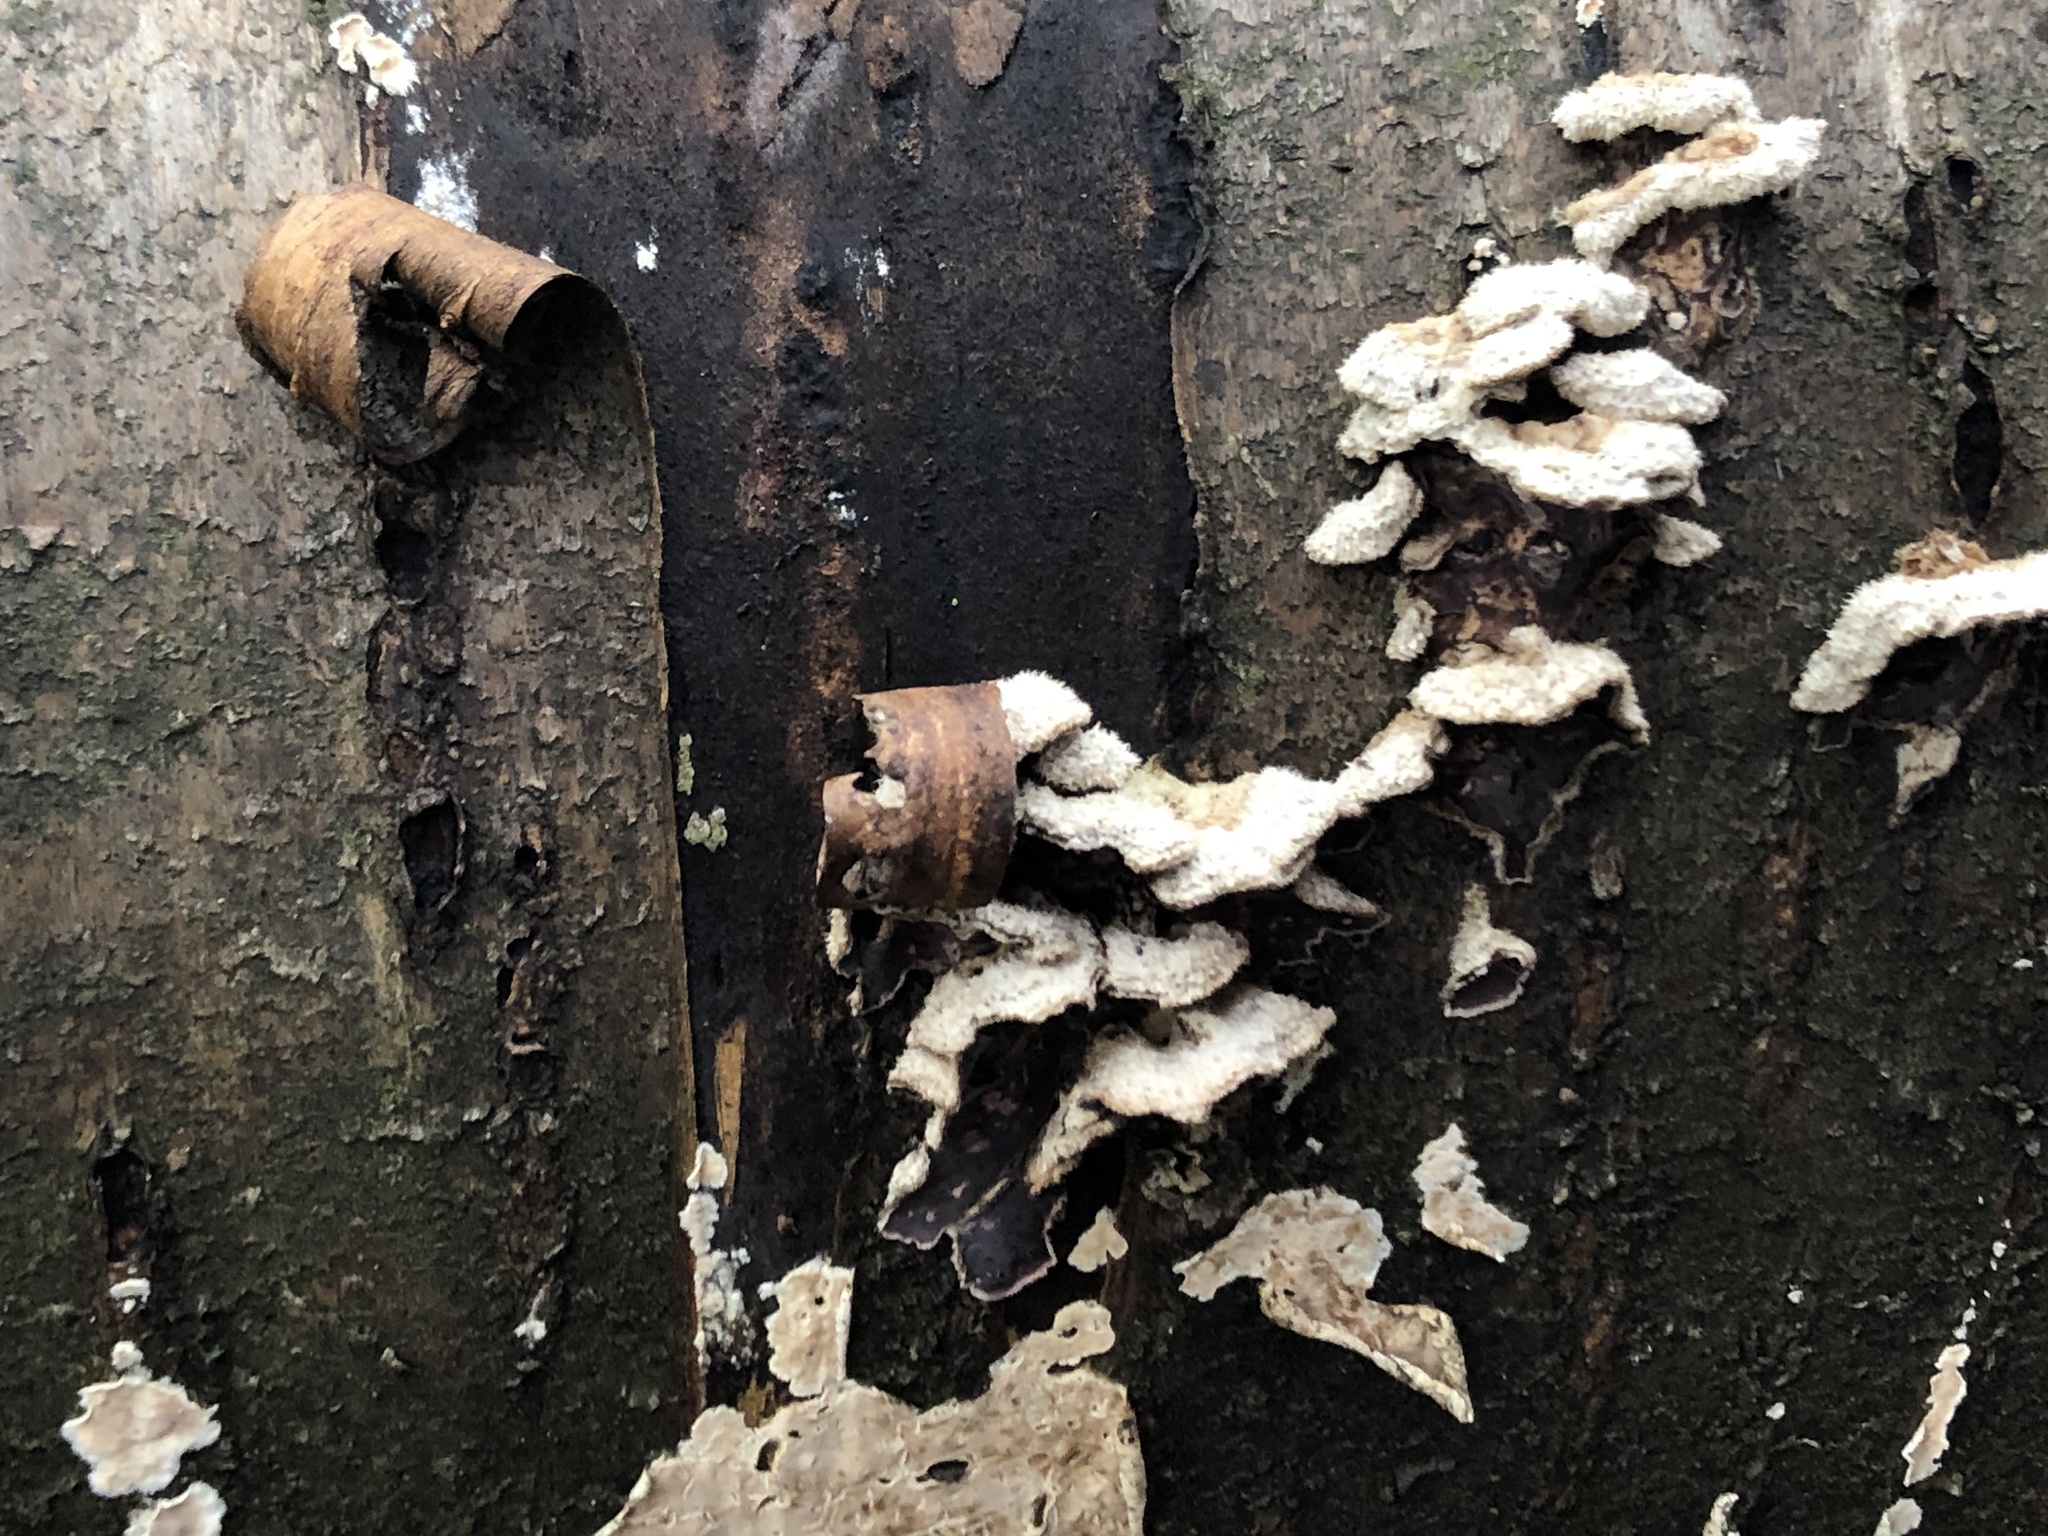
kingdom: Fungi
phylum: Basidiomycota
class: Agaricomycetes
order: Agaricales
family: Cyphellaceae
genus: Chondrostereum
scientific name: Chondrostereum purpureum
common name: Silver leaf disease
